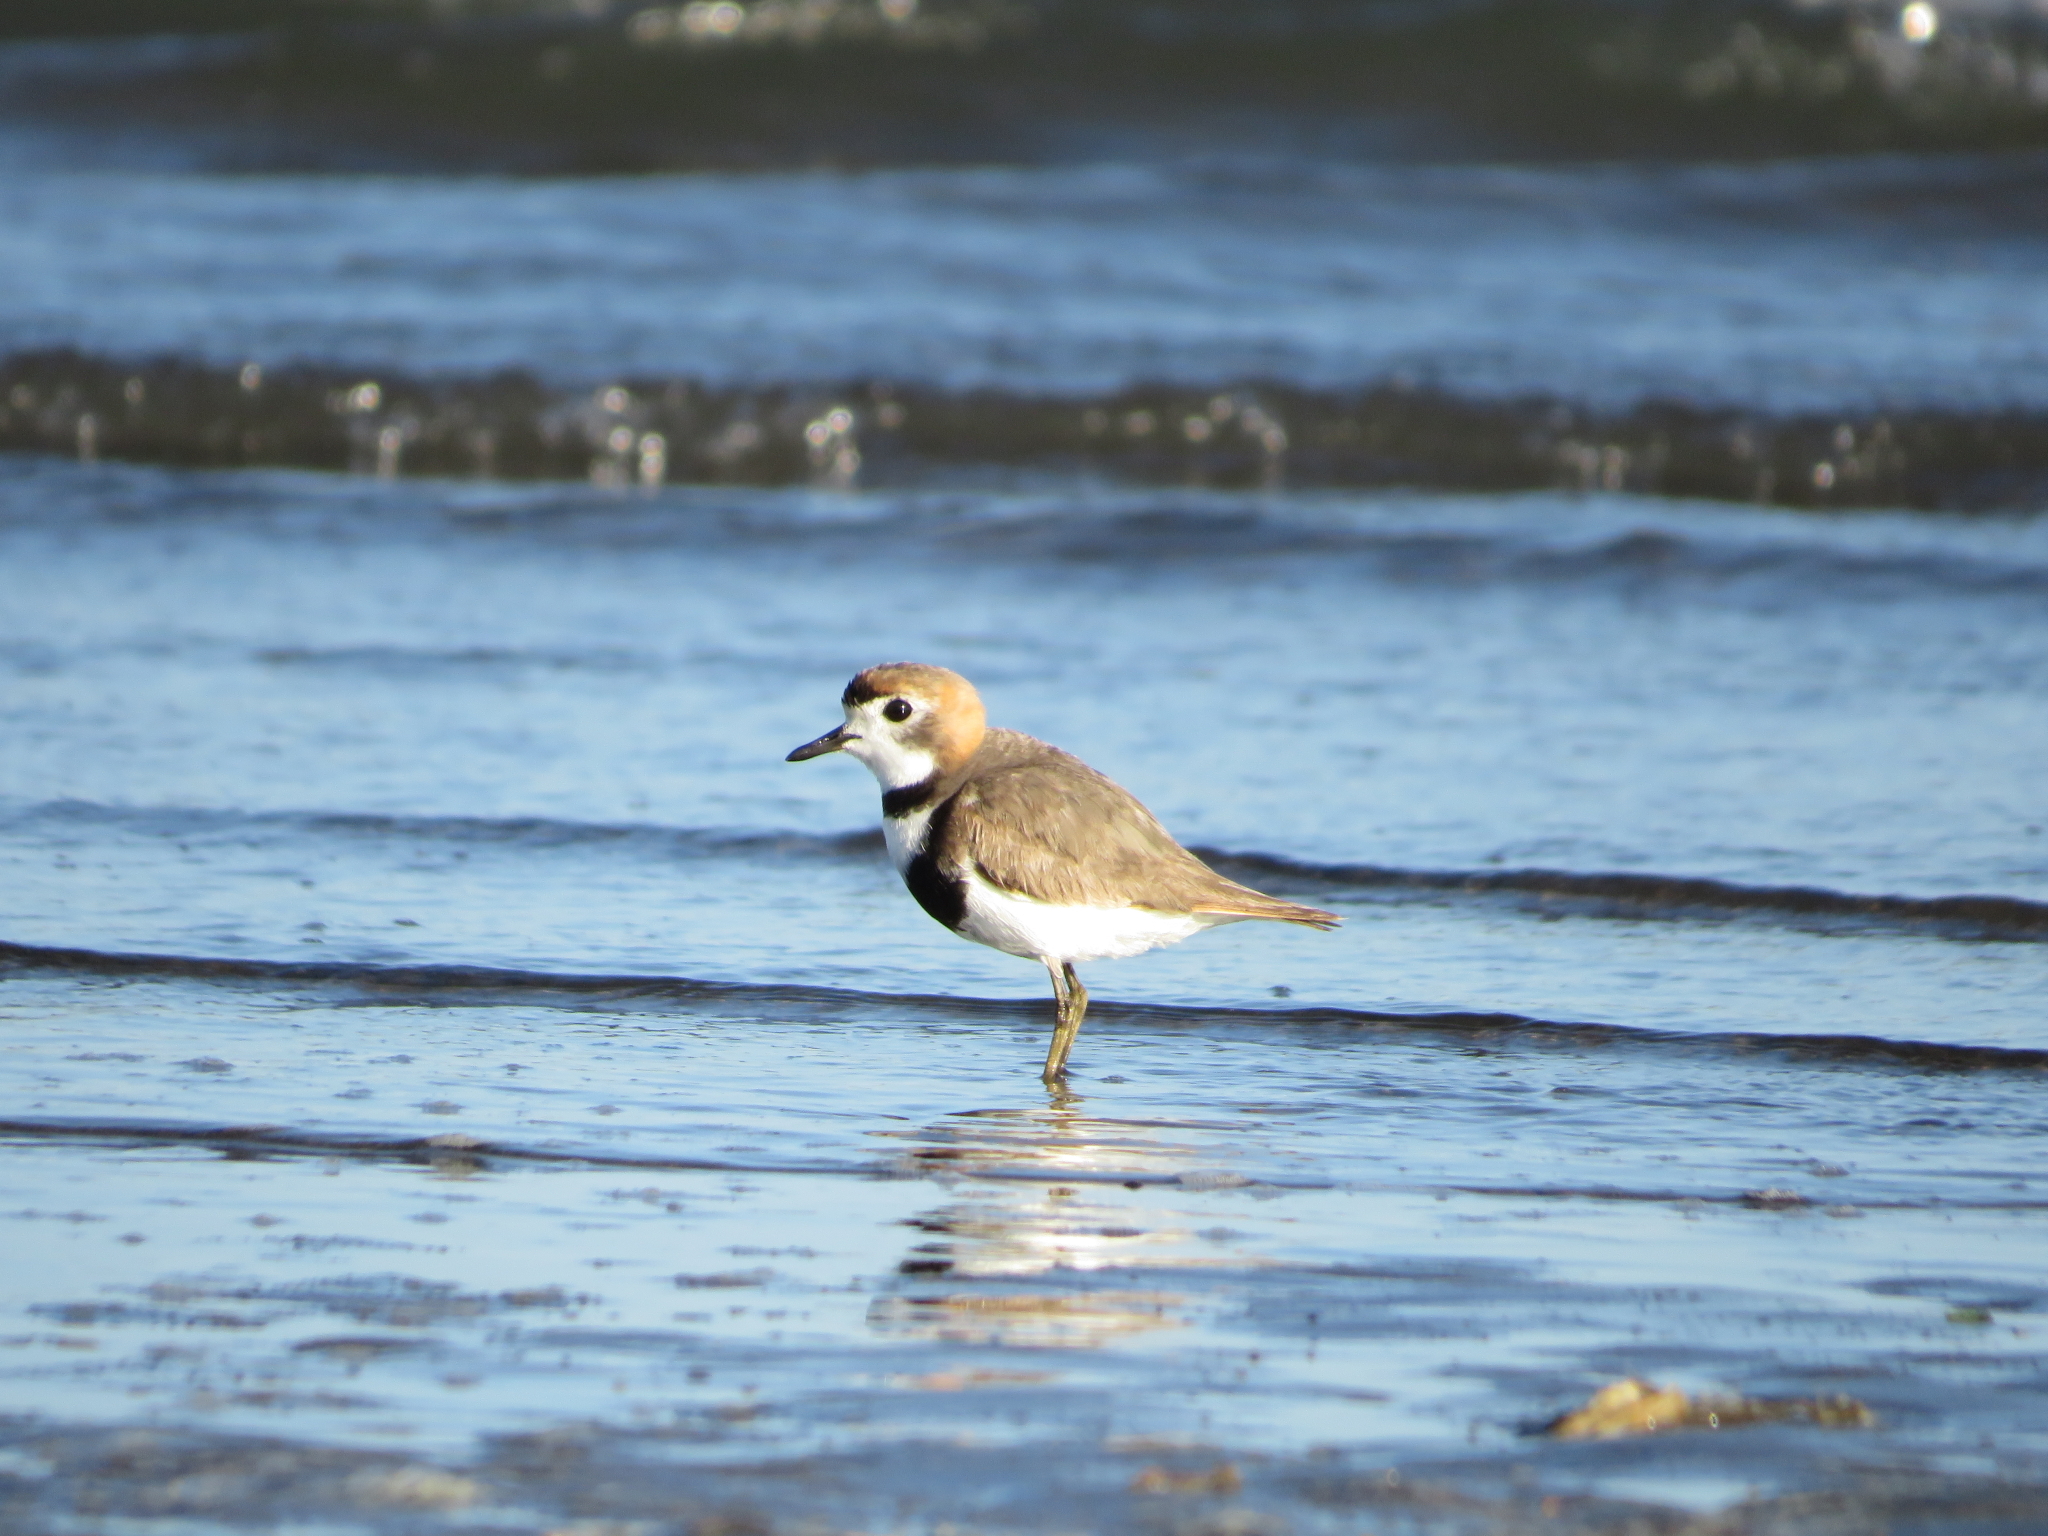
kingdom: Animalia
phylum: Chordata
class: Aves
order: Charadriiformes
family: Charadriidae
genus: Anarhynchus
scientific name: Anarhynchus
